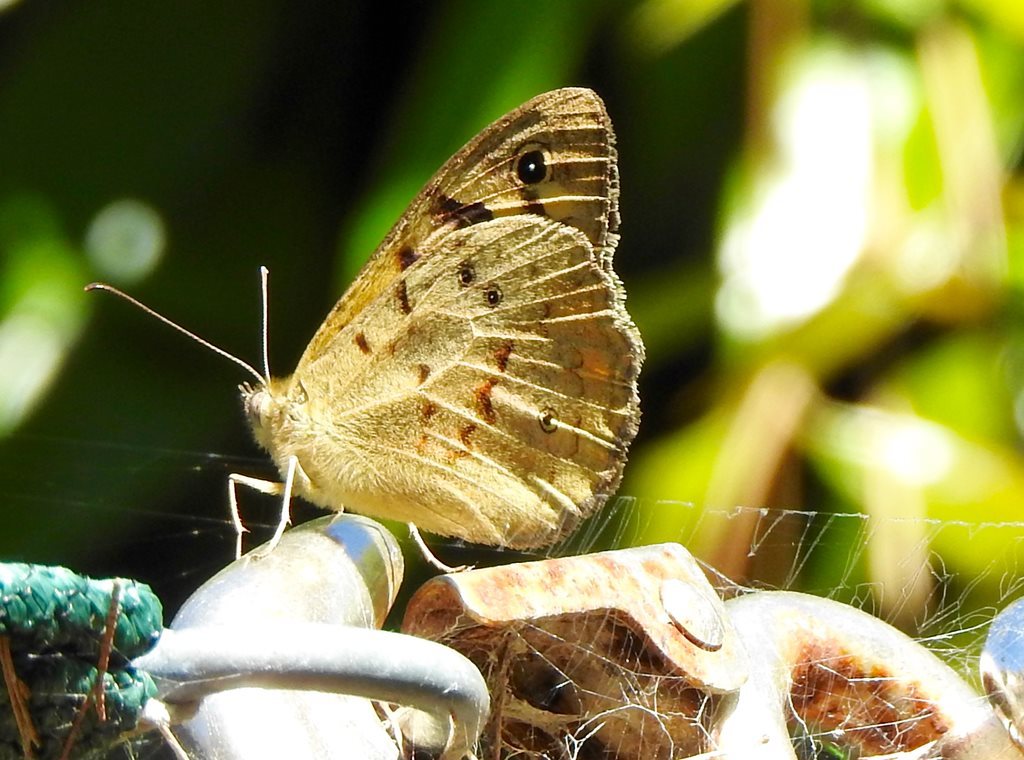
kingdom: Animalia
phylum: Arthropoda
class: Insecta
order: Lepidoptera
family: Nymphalidae
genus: Heteronympha
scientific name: Heteronympha merope
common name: Common brown
